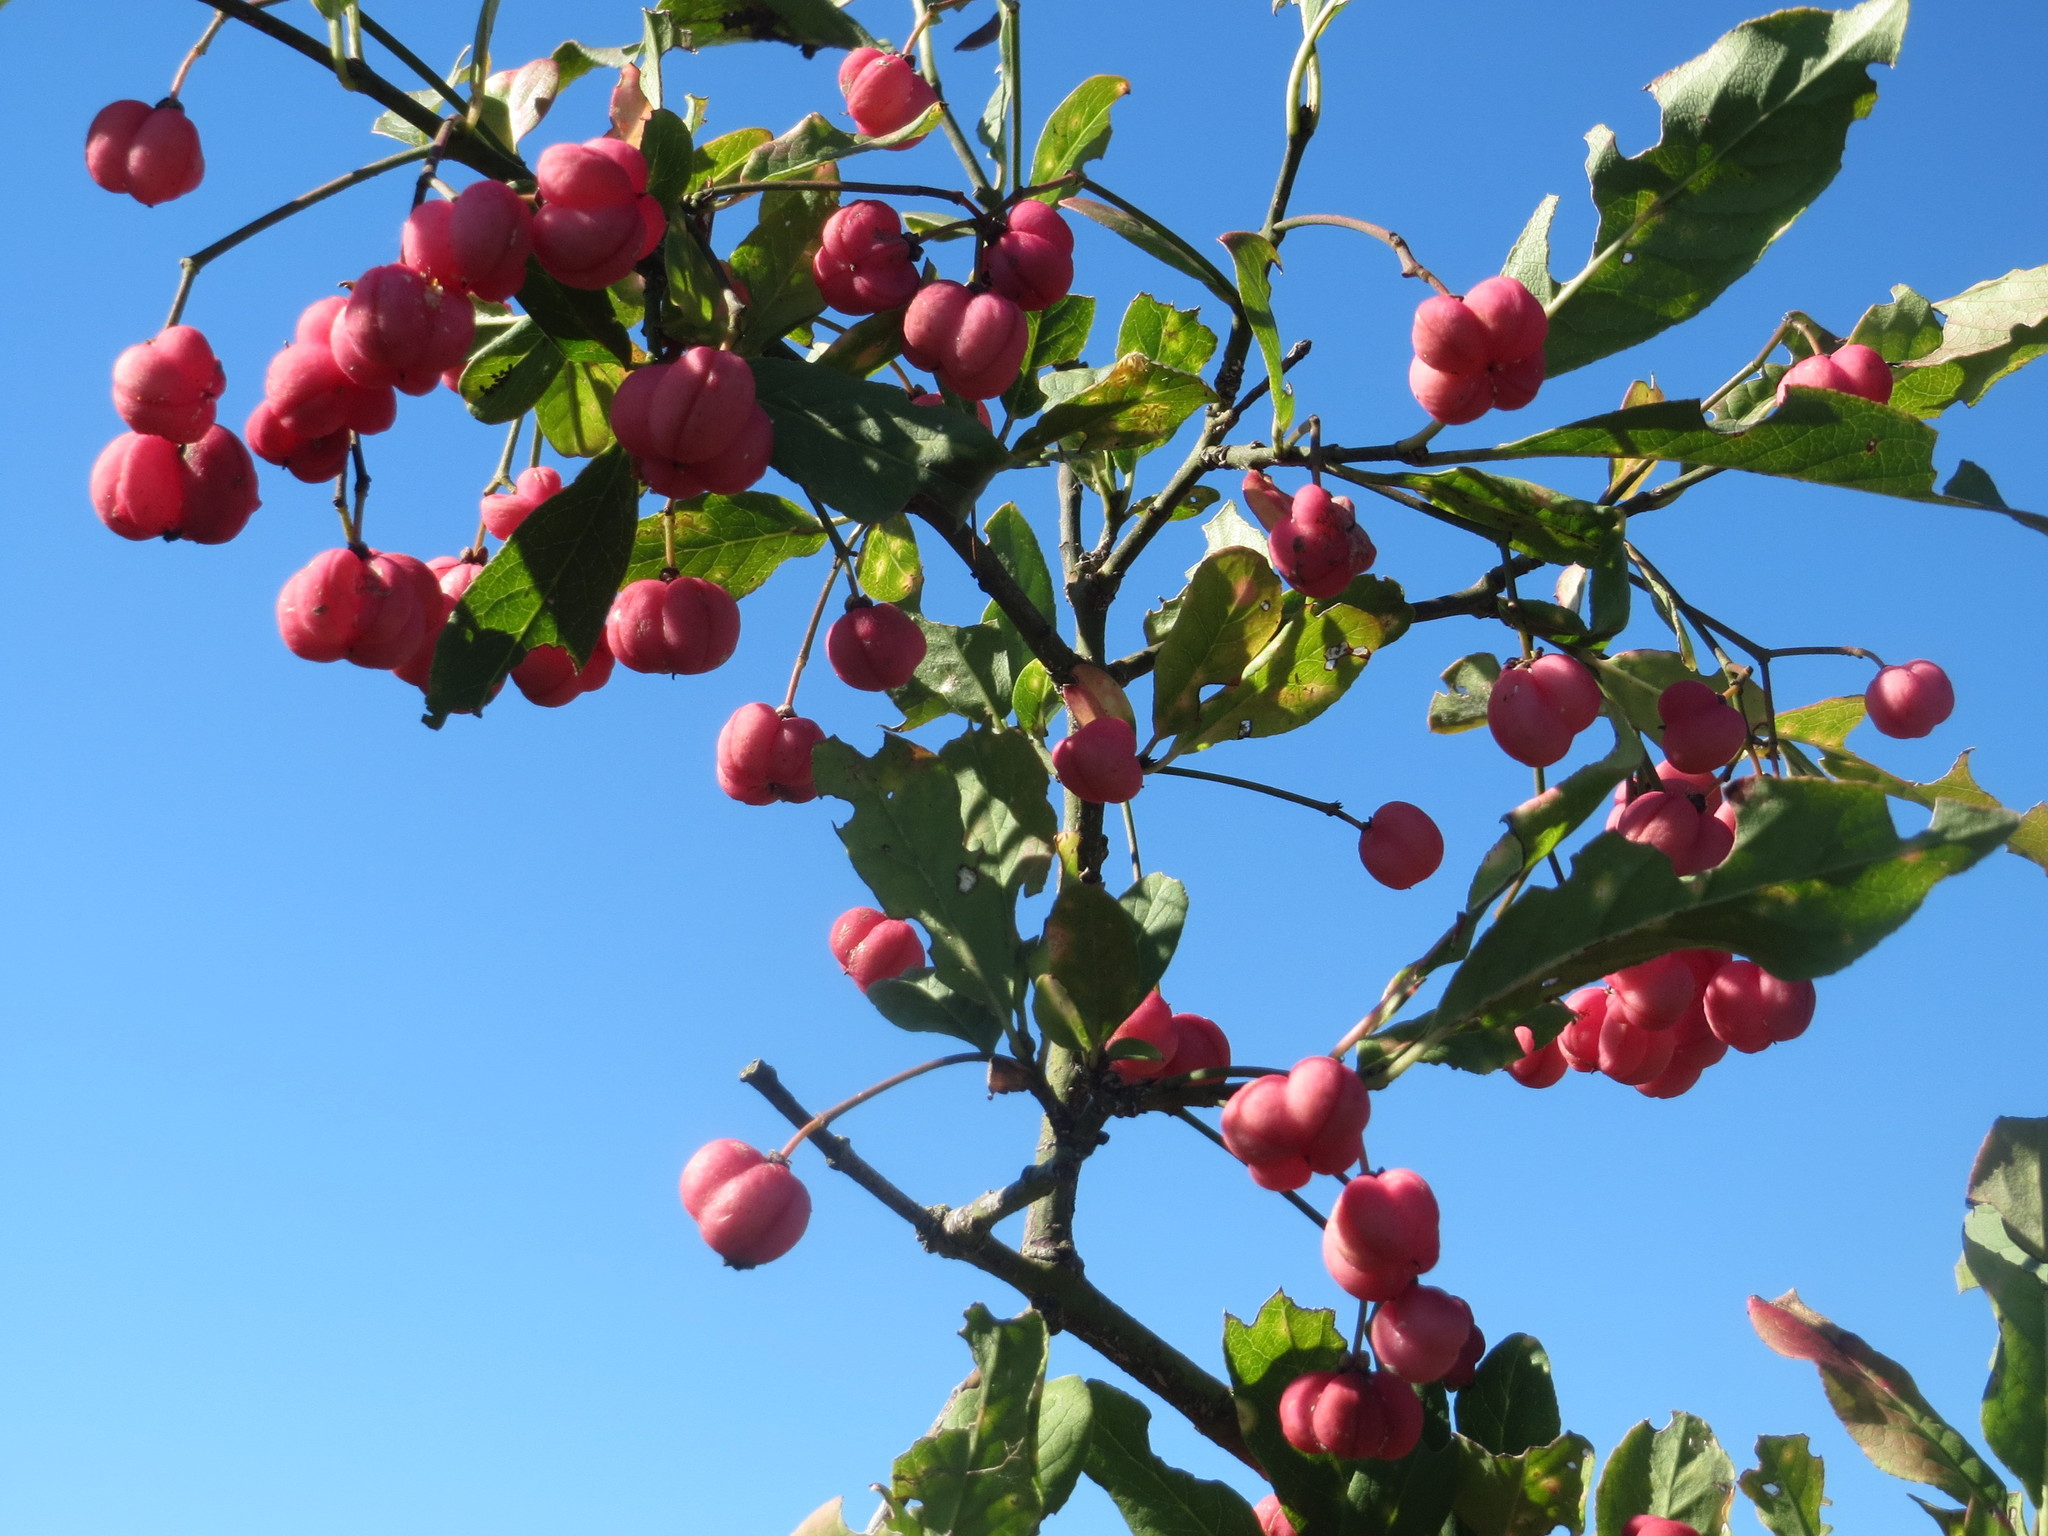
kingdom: Plantae
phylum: Tracheophyta
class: Magnoliopsida
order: Celastrales
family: Celastraceae
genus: Euonymus
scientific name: Euonymus europaeus
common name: Spindle
